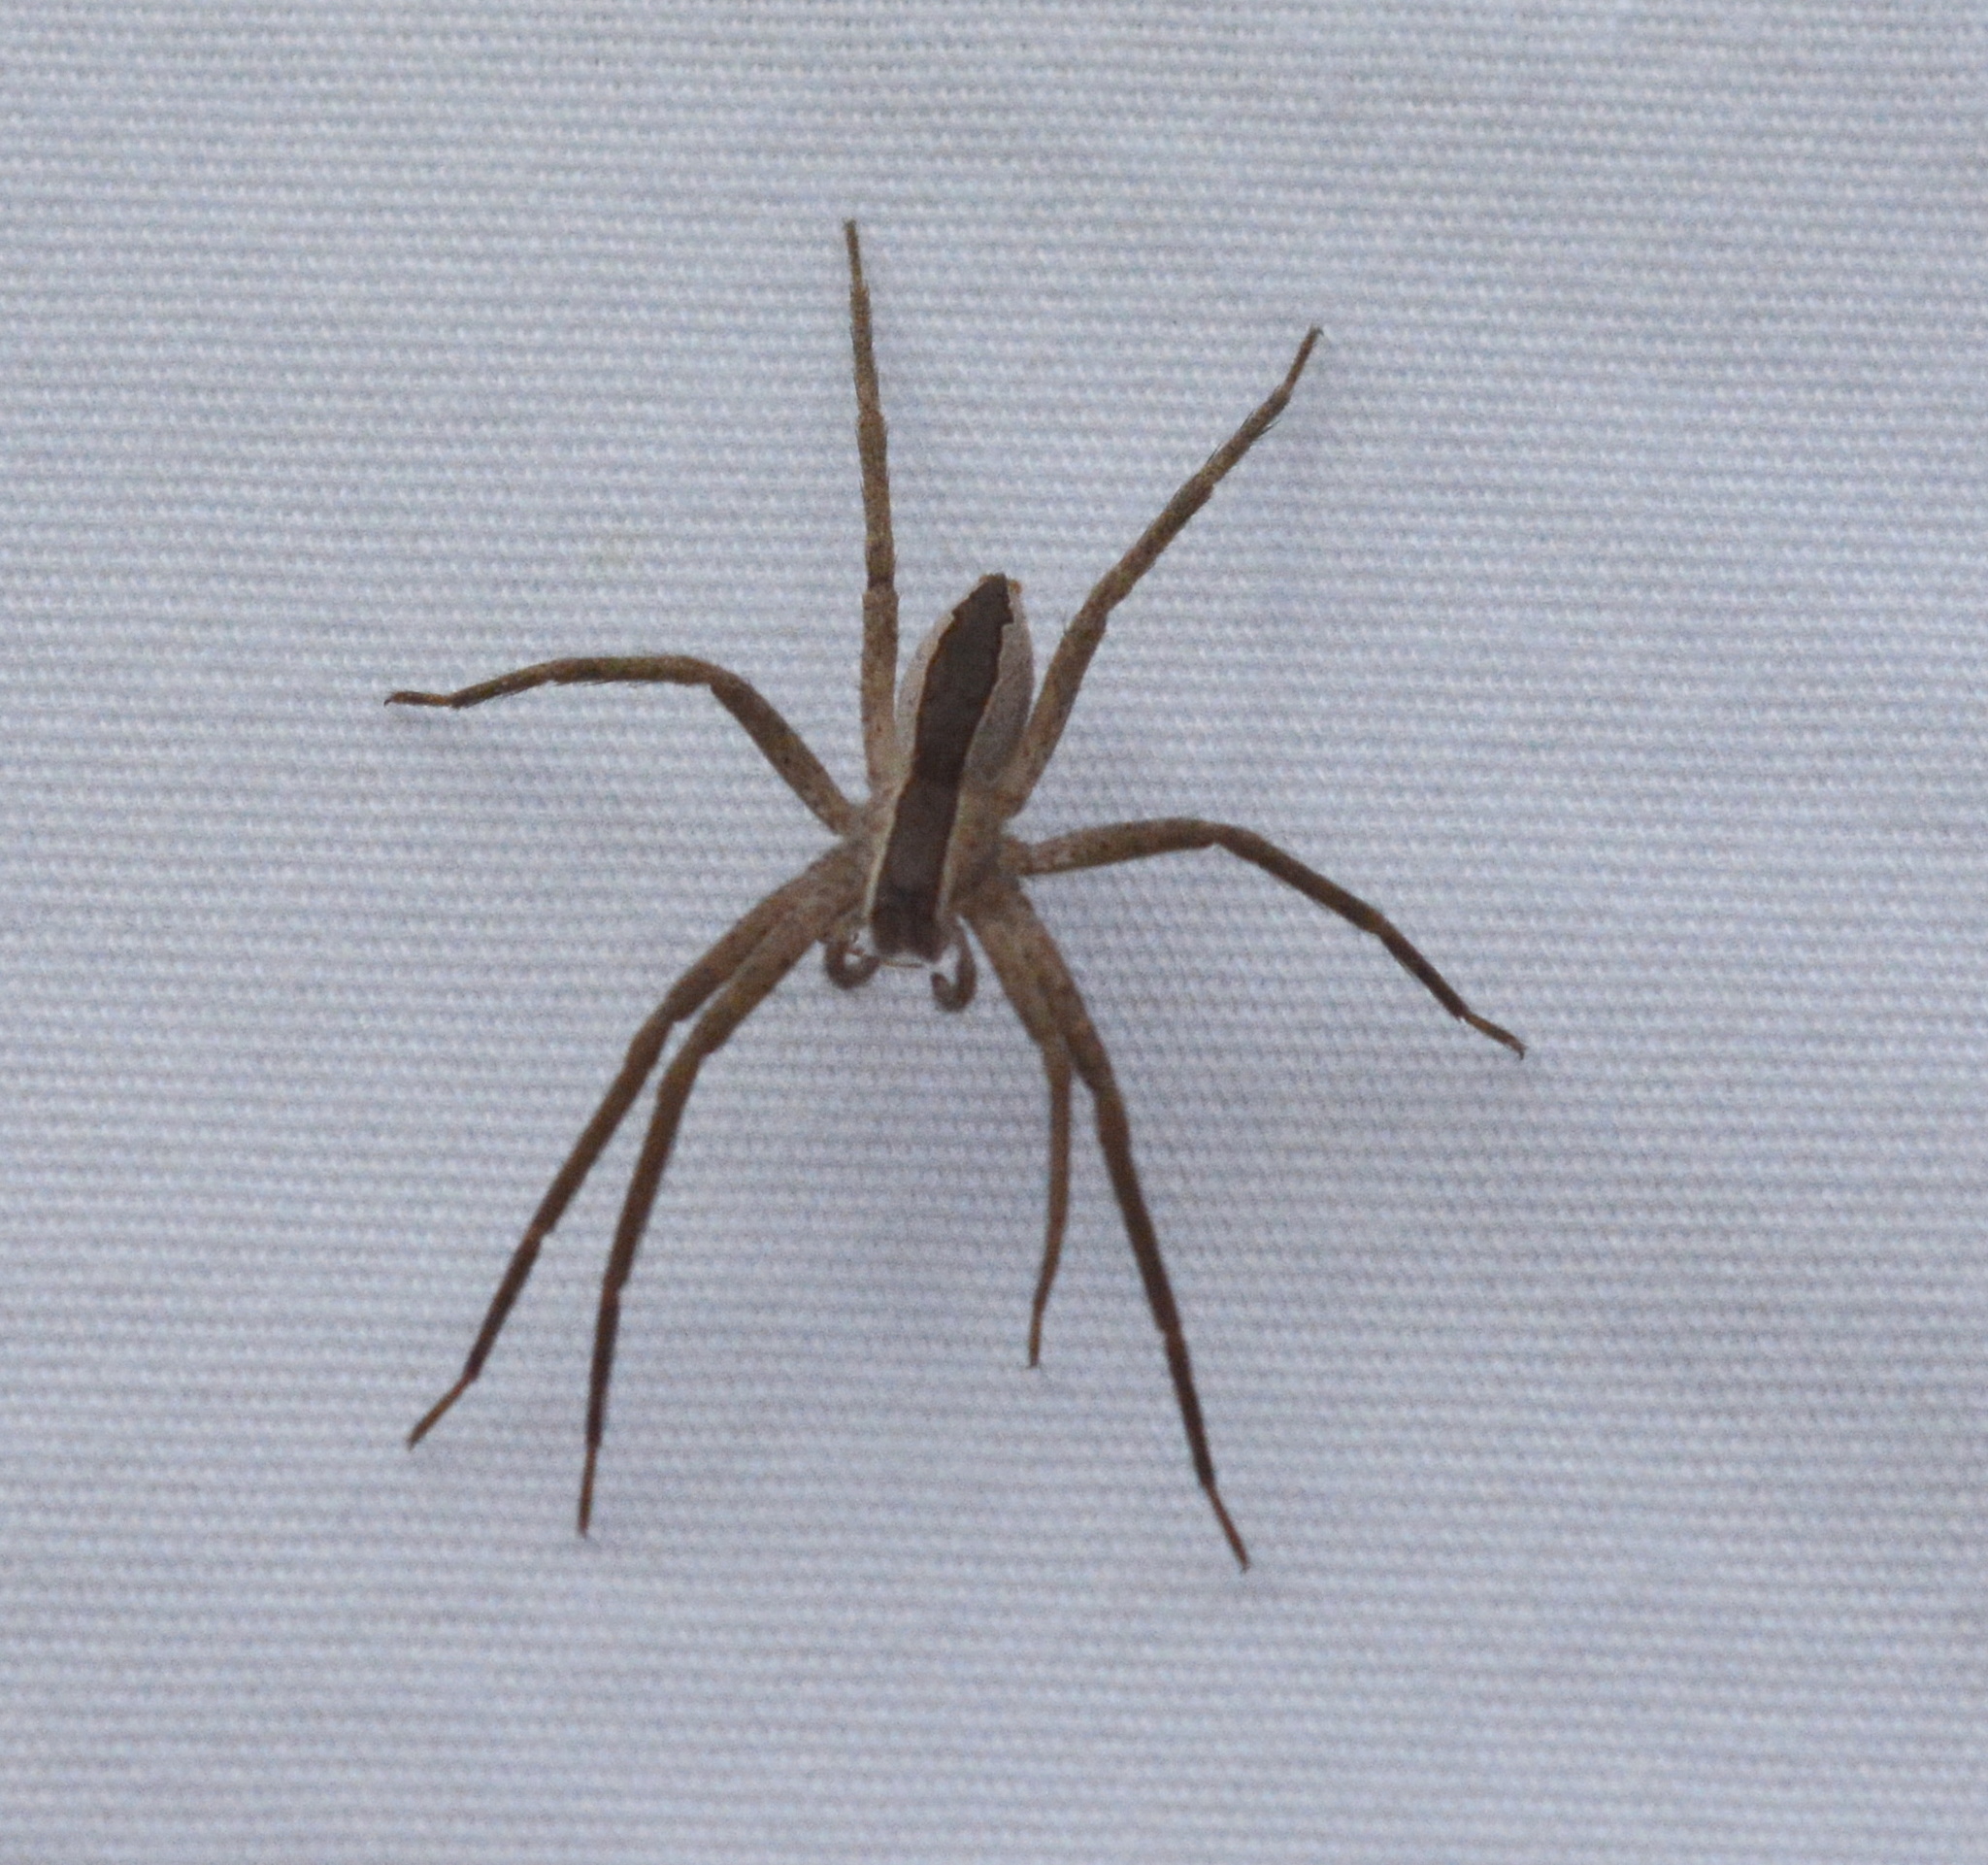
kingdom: Animalia
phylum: Arthropoda
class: Arachnida
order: Araneae
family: Pisauridae
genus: Pisaurina
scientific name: Pisaurina mira
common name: American nursery web spider
